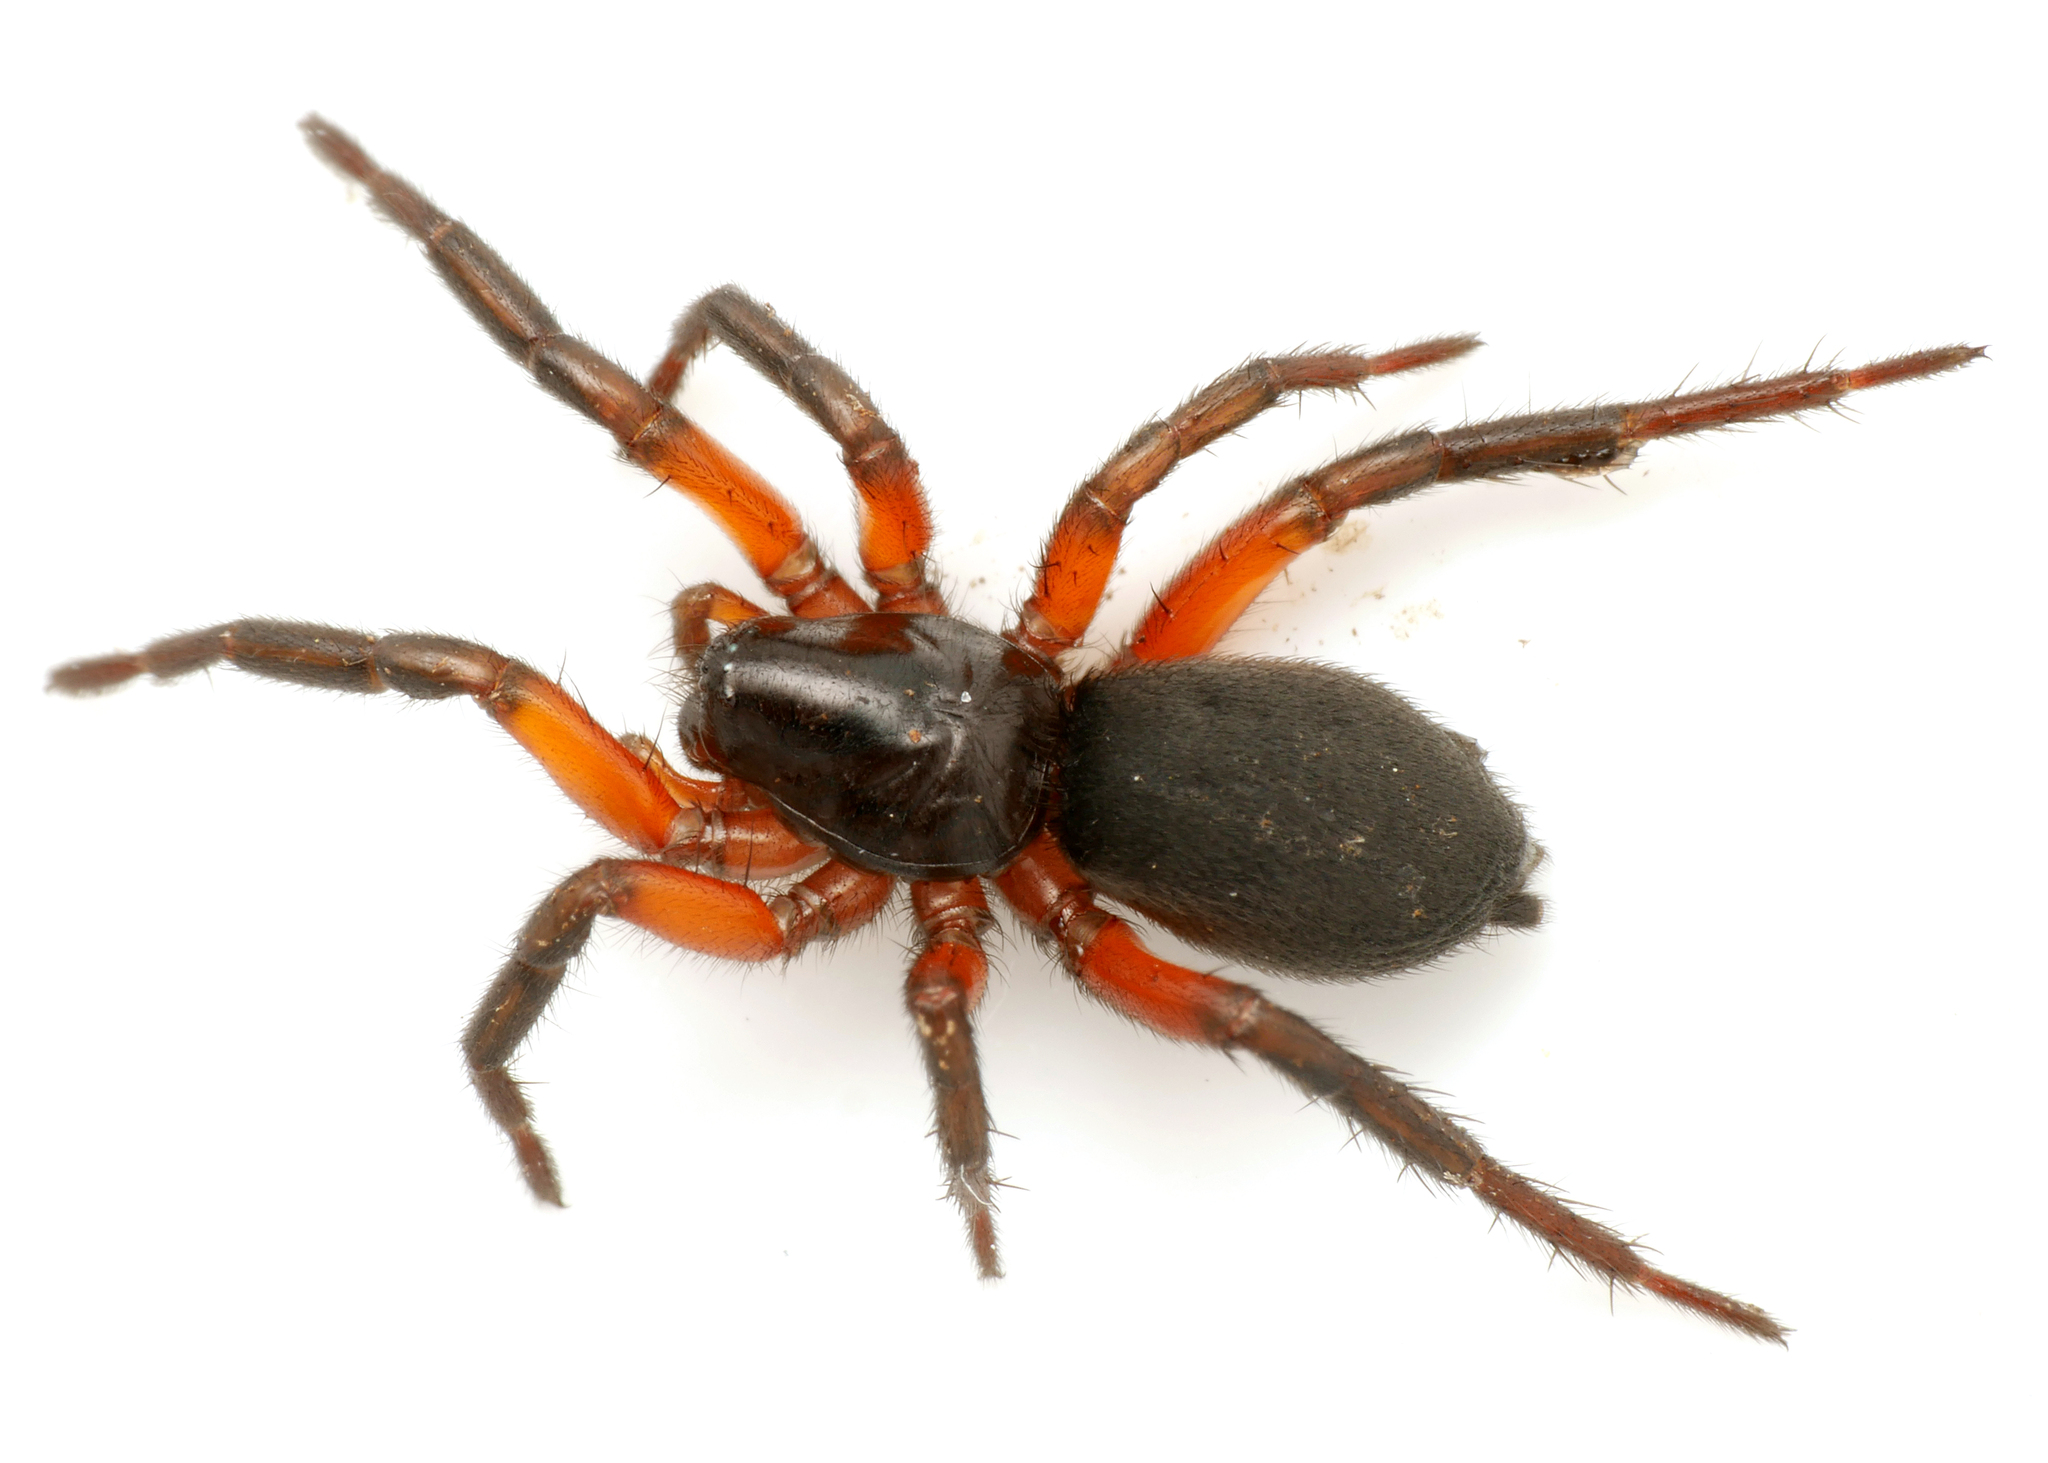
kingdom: Animalia
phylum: Arthropoda
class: Arachnida
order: Araneae
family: Gnaphosidae
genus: Gnaphosa
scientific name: Gnaphosa bicolor
